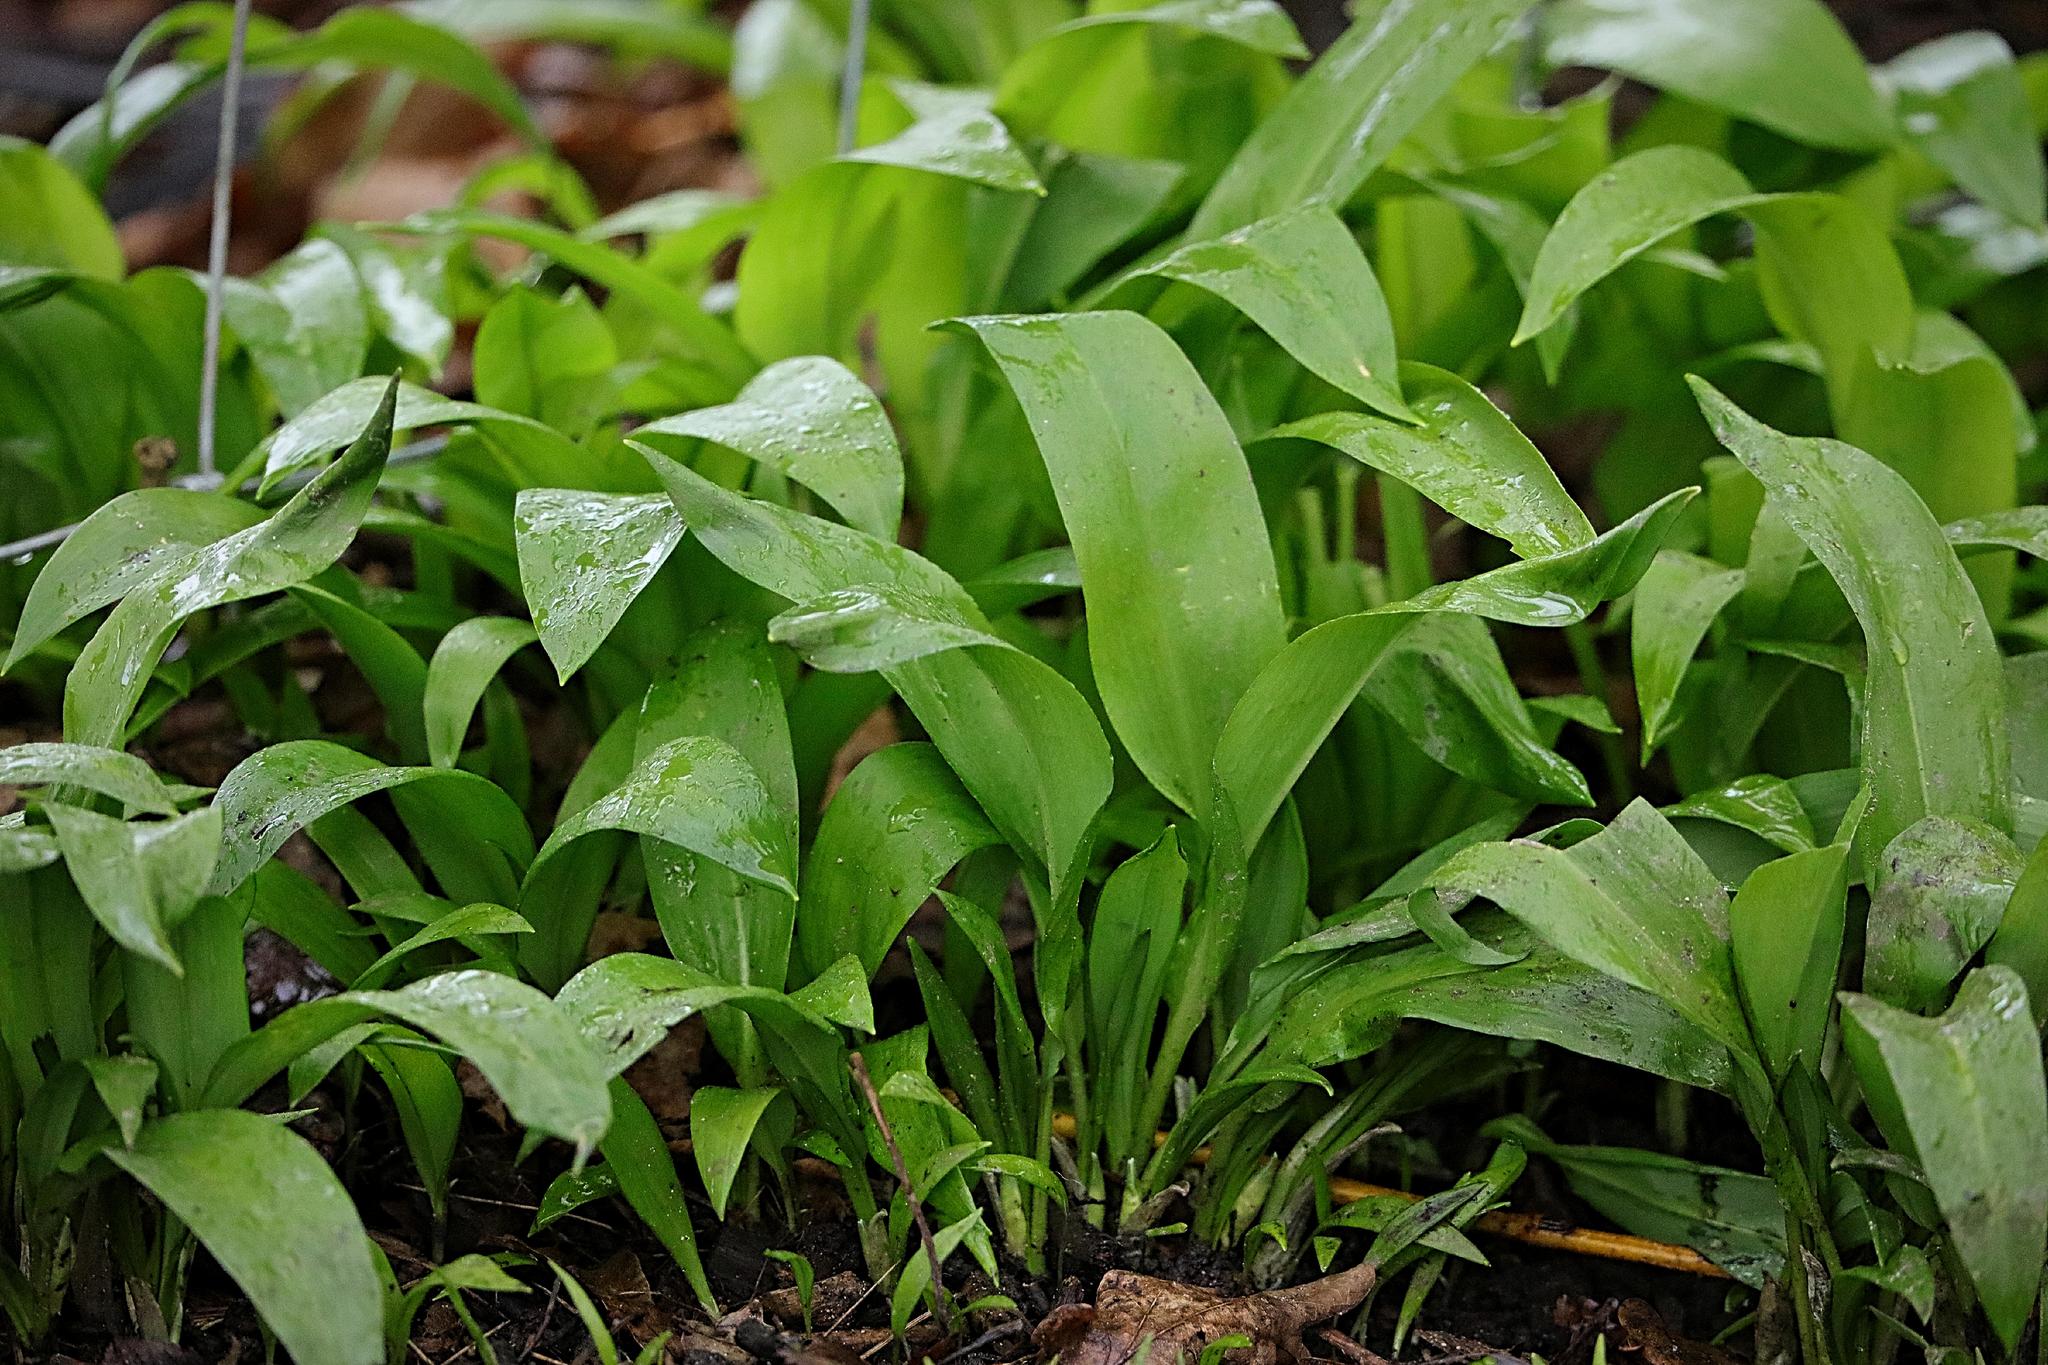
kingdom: Plantae
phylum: Tracheophyta
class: Liliopsida
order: Asparagales
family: Amaryllidaceae
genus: Allium
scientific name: Allium ursinum
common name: Ramsons
